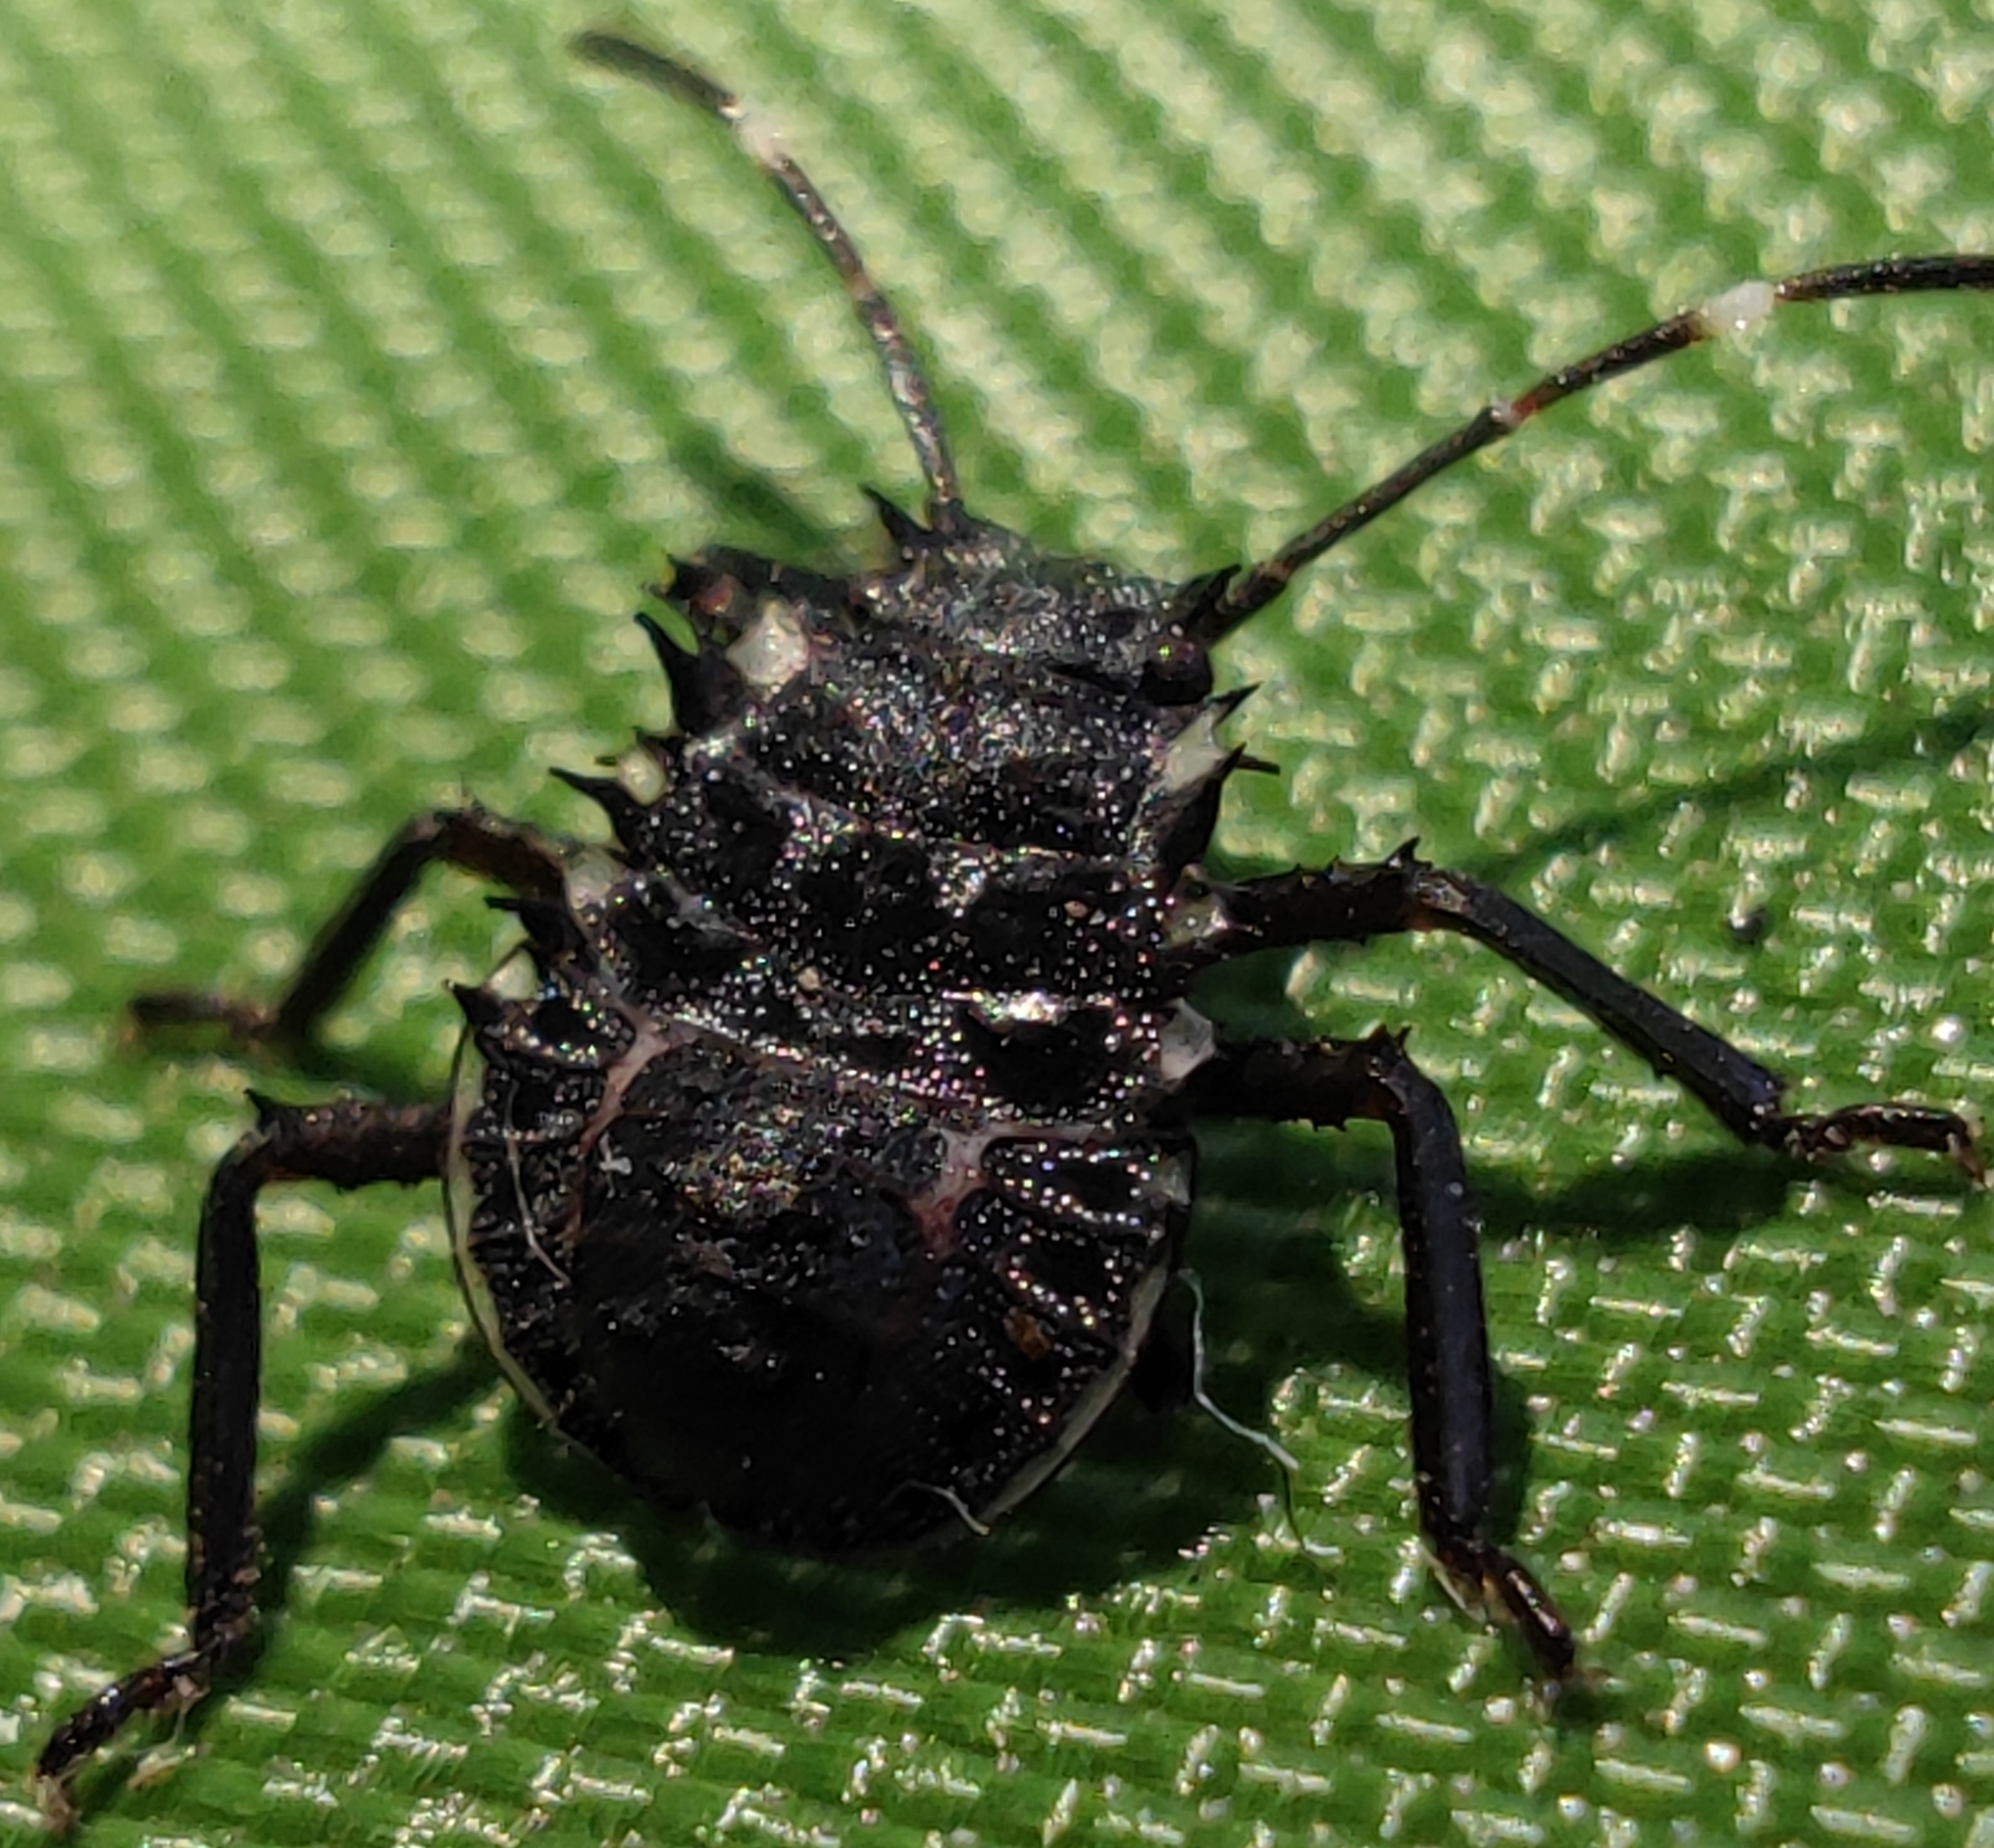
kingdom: Animalia
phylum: Arthropoda
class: Insecta
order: Hemiptera
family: Pentatomidae
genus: Halyomorpha
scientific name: Halyomorpha halys
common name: Brown marmorated stink bug
